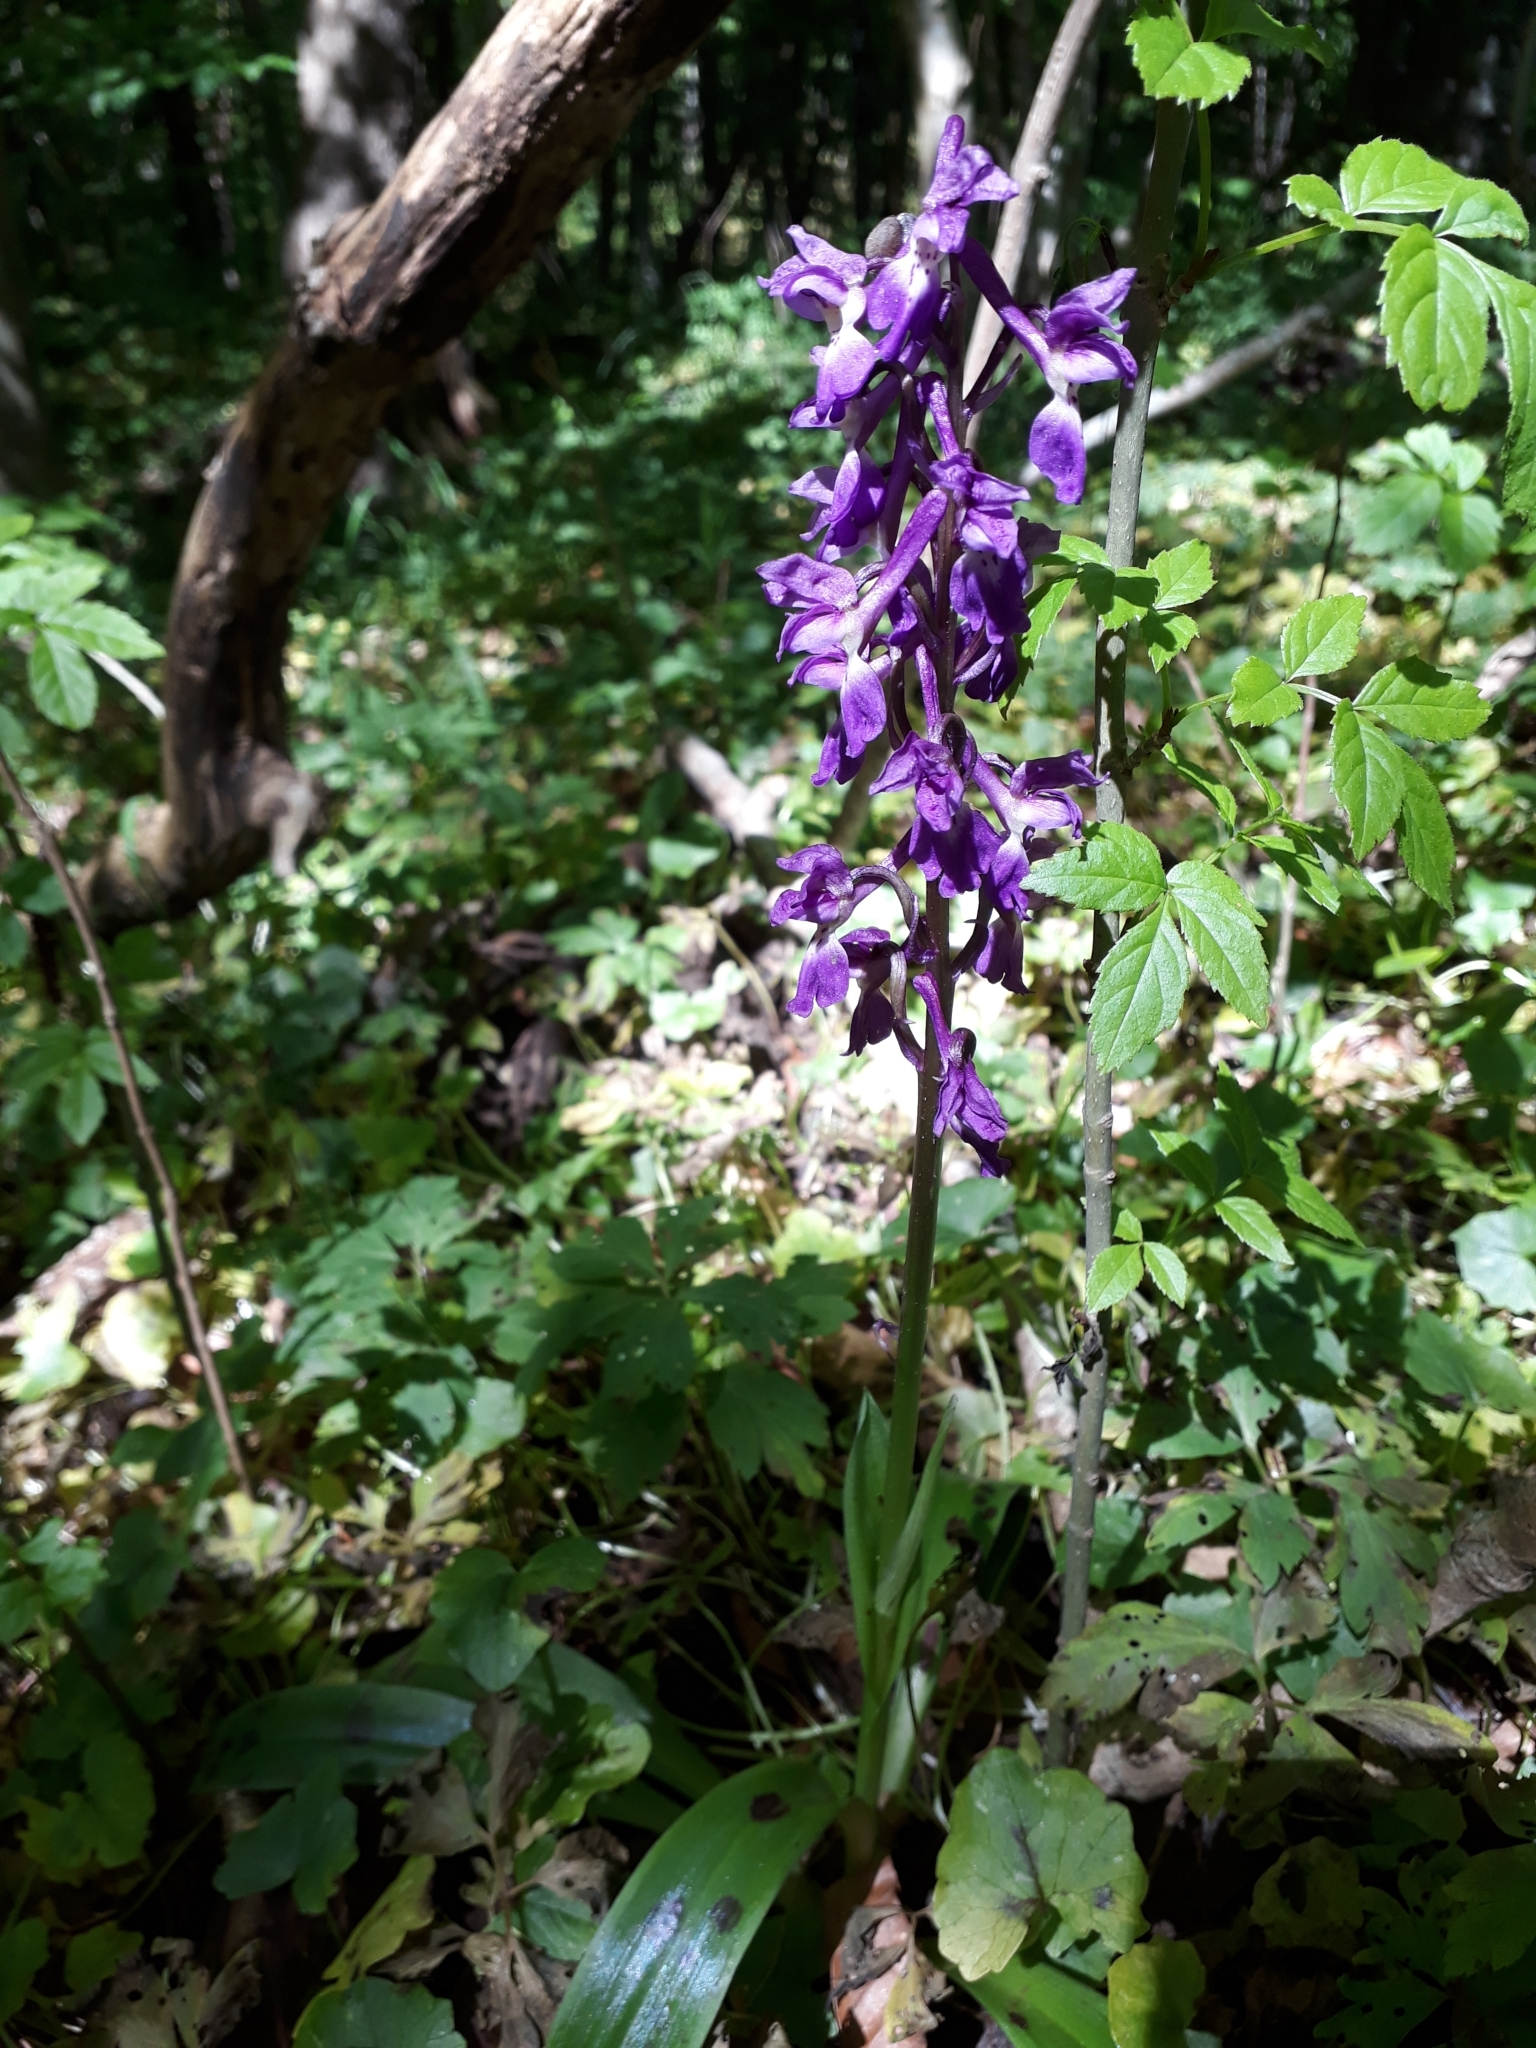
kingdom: Plantae
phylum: Tracheophyta
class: Liliopsida
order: Asparagales
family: Orchidaceae
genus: Orchis
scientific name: Orchis mascula
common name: Early-purple orchid
